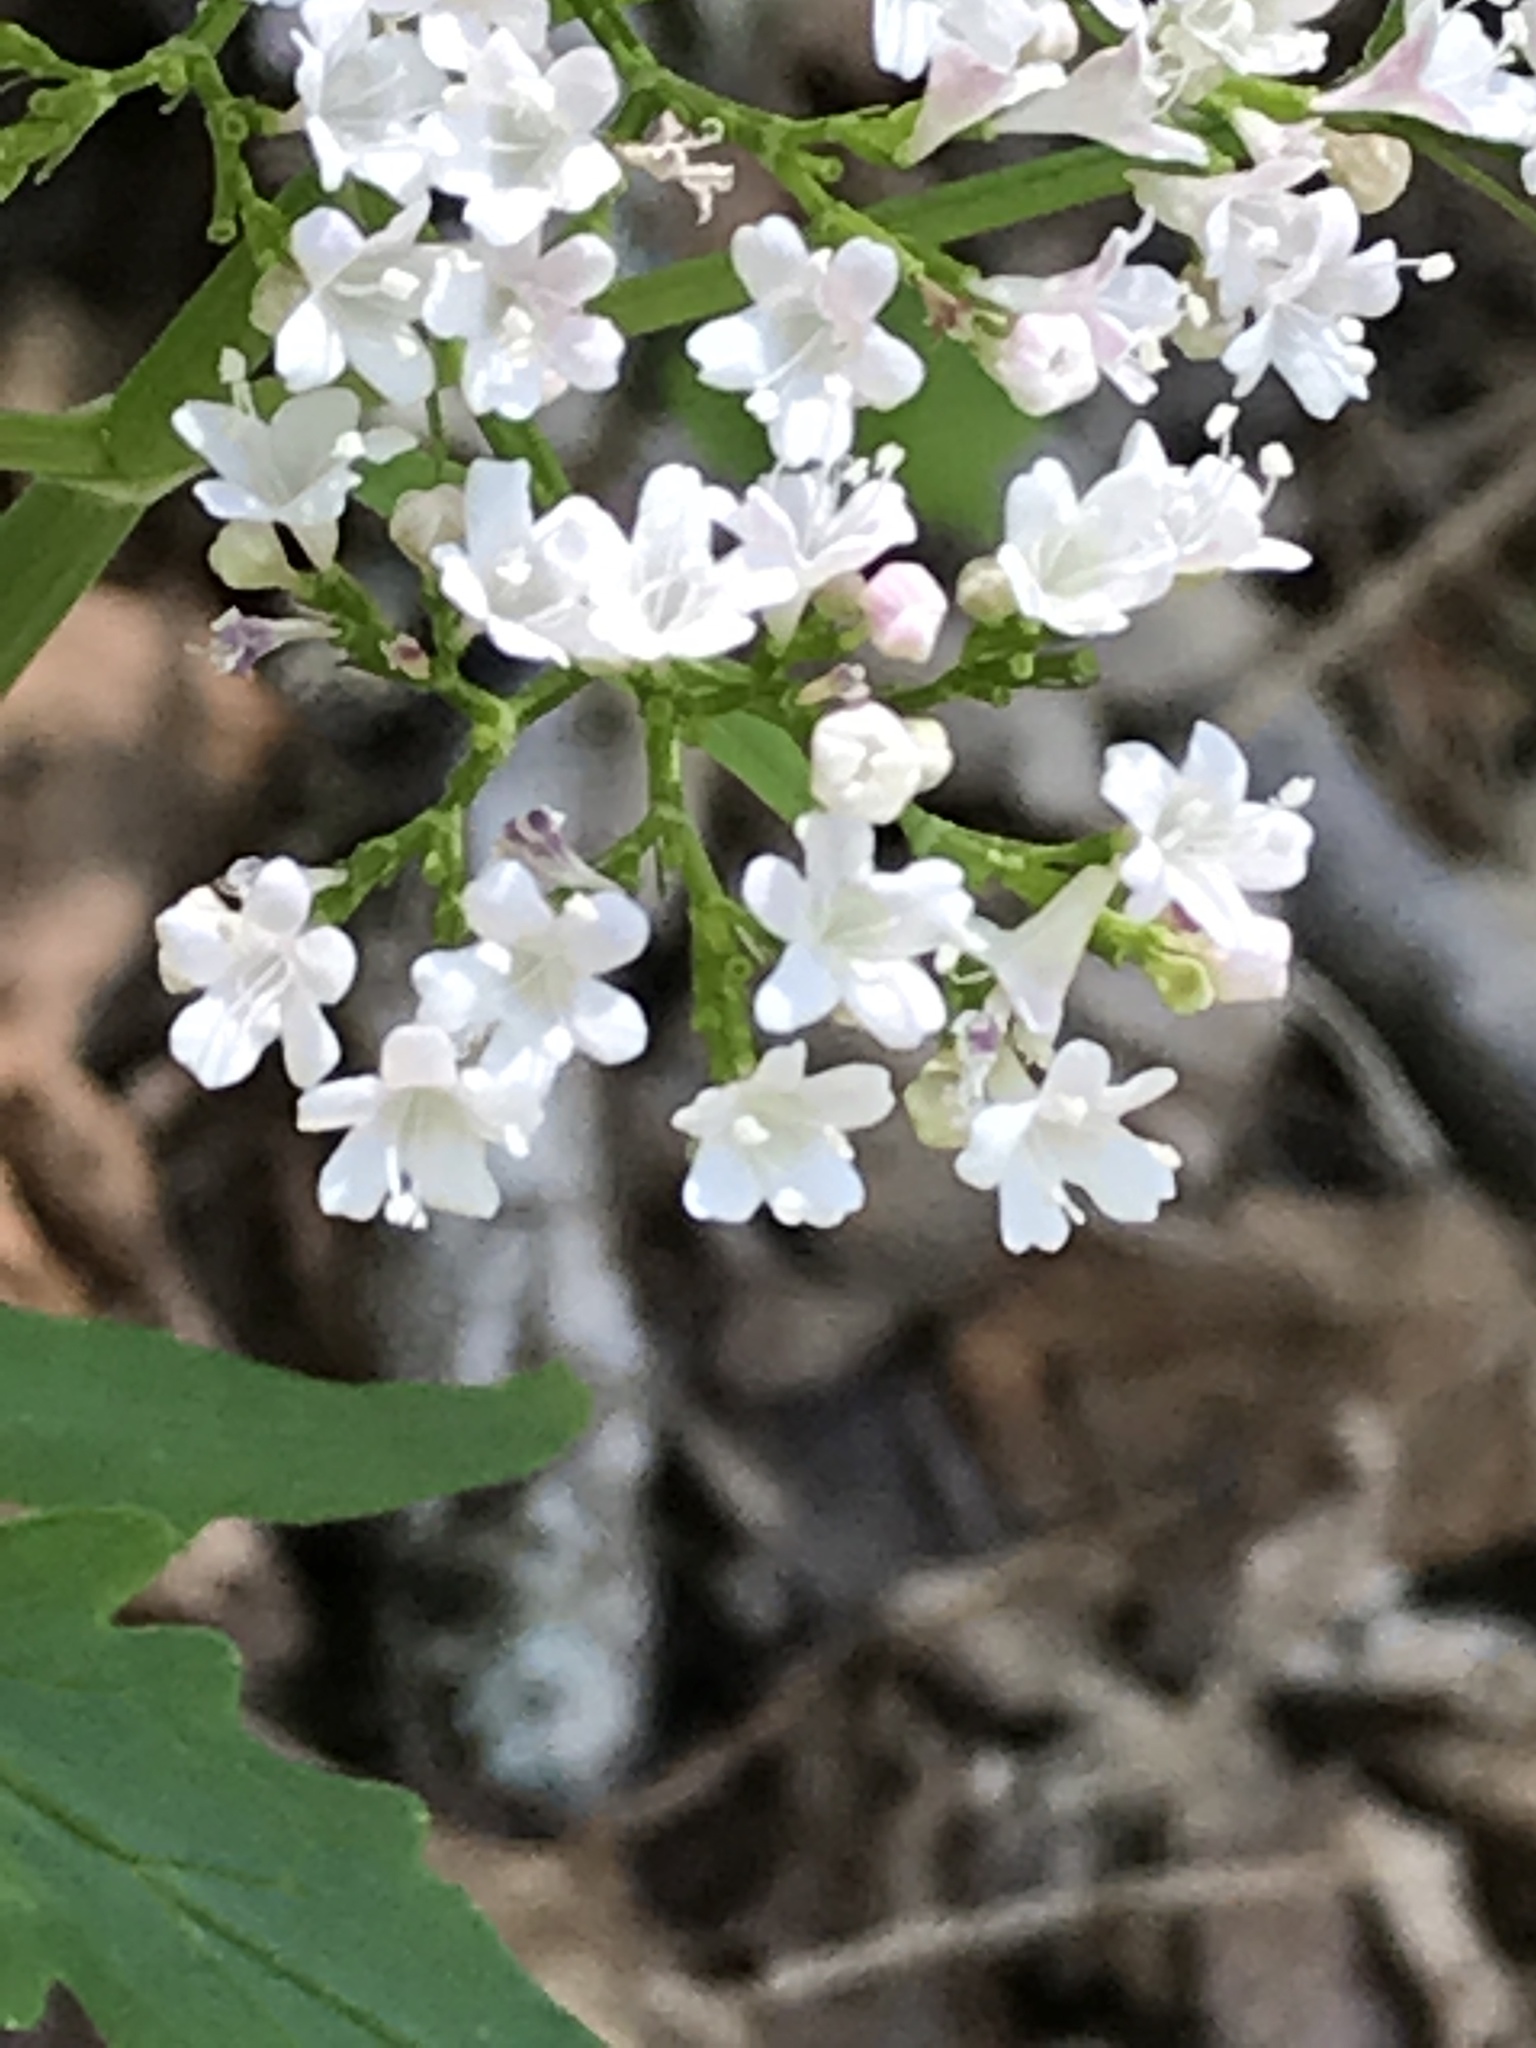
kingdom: Plantae
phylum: Tracheophyta
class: Magnoliopsida
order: Dipsacales
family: Caprifoliaceae
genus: Valeriana
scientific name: Valeriana tripteris
